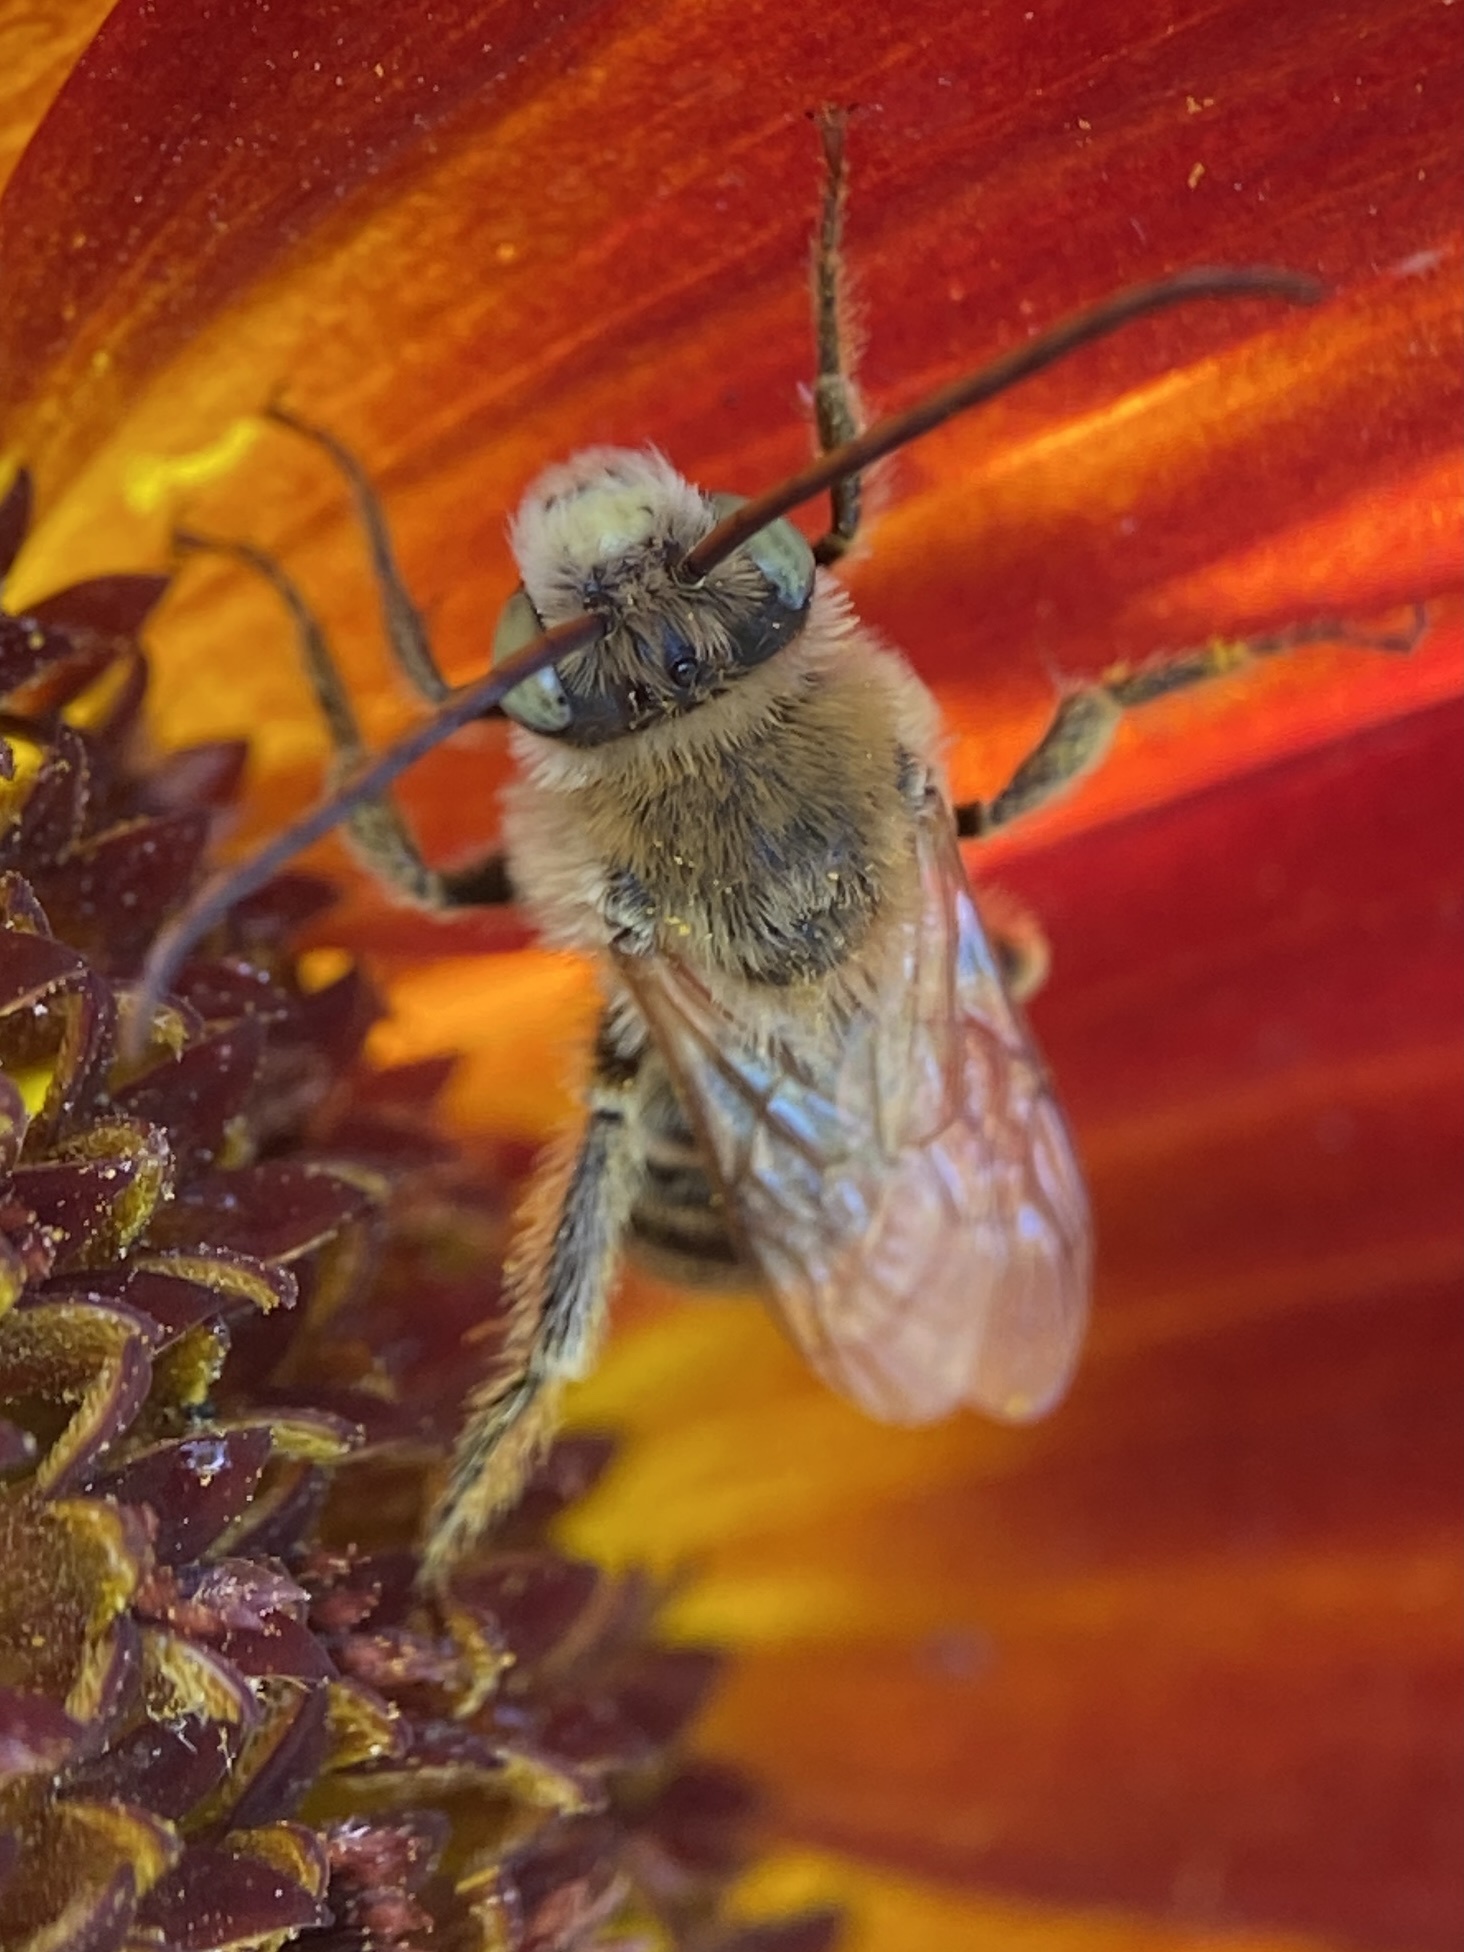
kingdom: Animalia
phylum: Arthropoda
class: Insecta
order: Hymenoptera
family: Apidae
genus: Melissodes
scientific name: Melissodes trinodis
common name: Dark-veined longhorn
